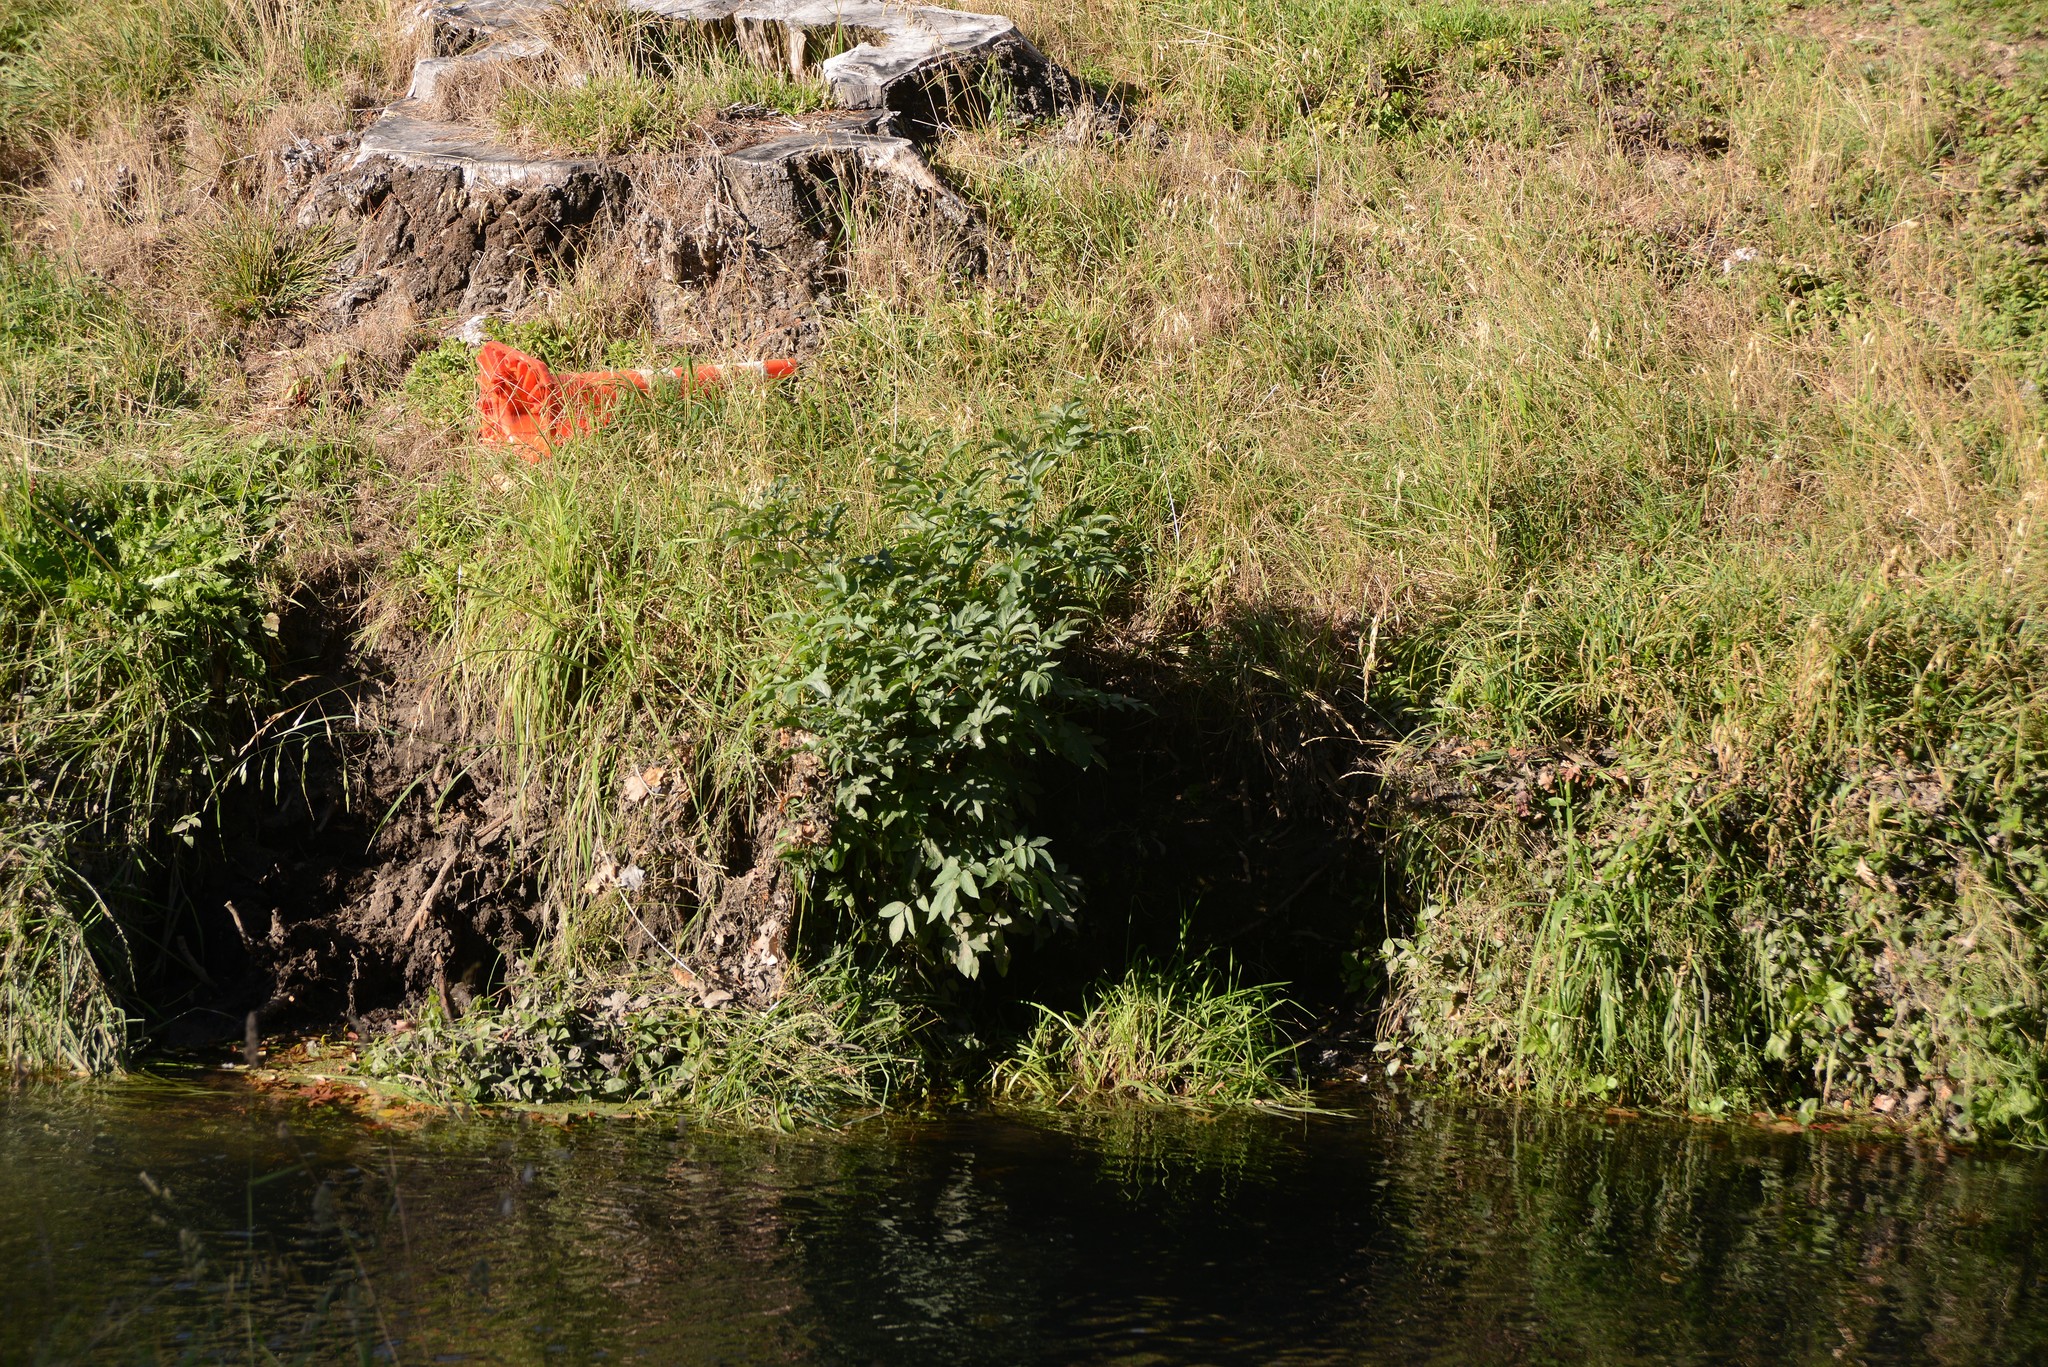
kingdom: Plantae
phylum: Tracheophyta
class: Magnoliopsida
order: Dipsacales
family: Viburnaceae
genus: Sambucus
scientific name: Sambucus nigra
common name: Elder
